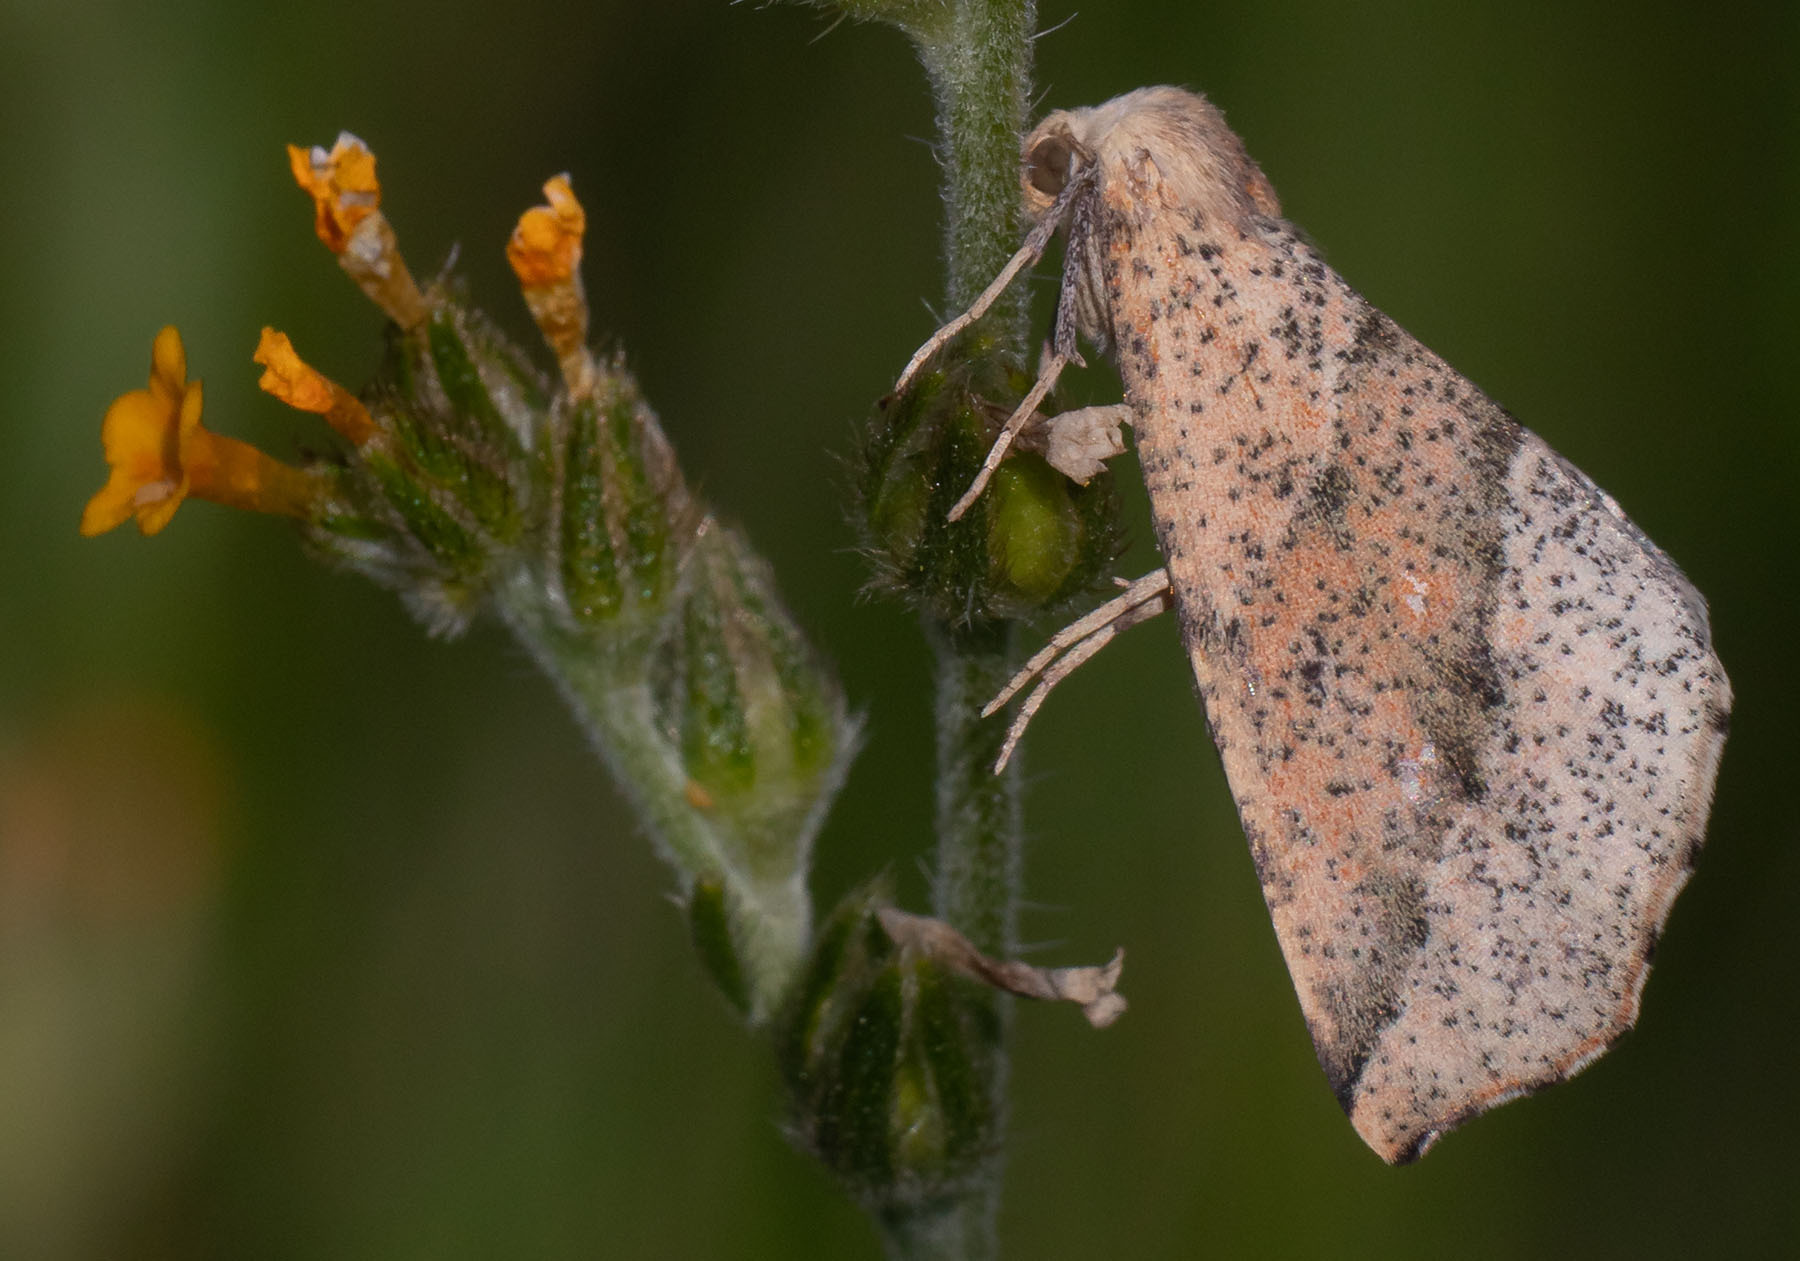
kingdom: Animalia
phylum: Arthropoda
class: Insecta
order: Lepidoptera
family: Geometridae
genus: Sicya
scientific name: Sicya morsicaria
